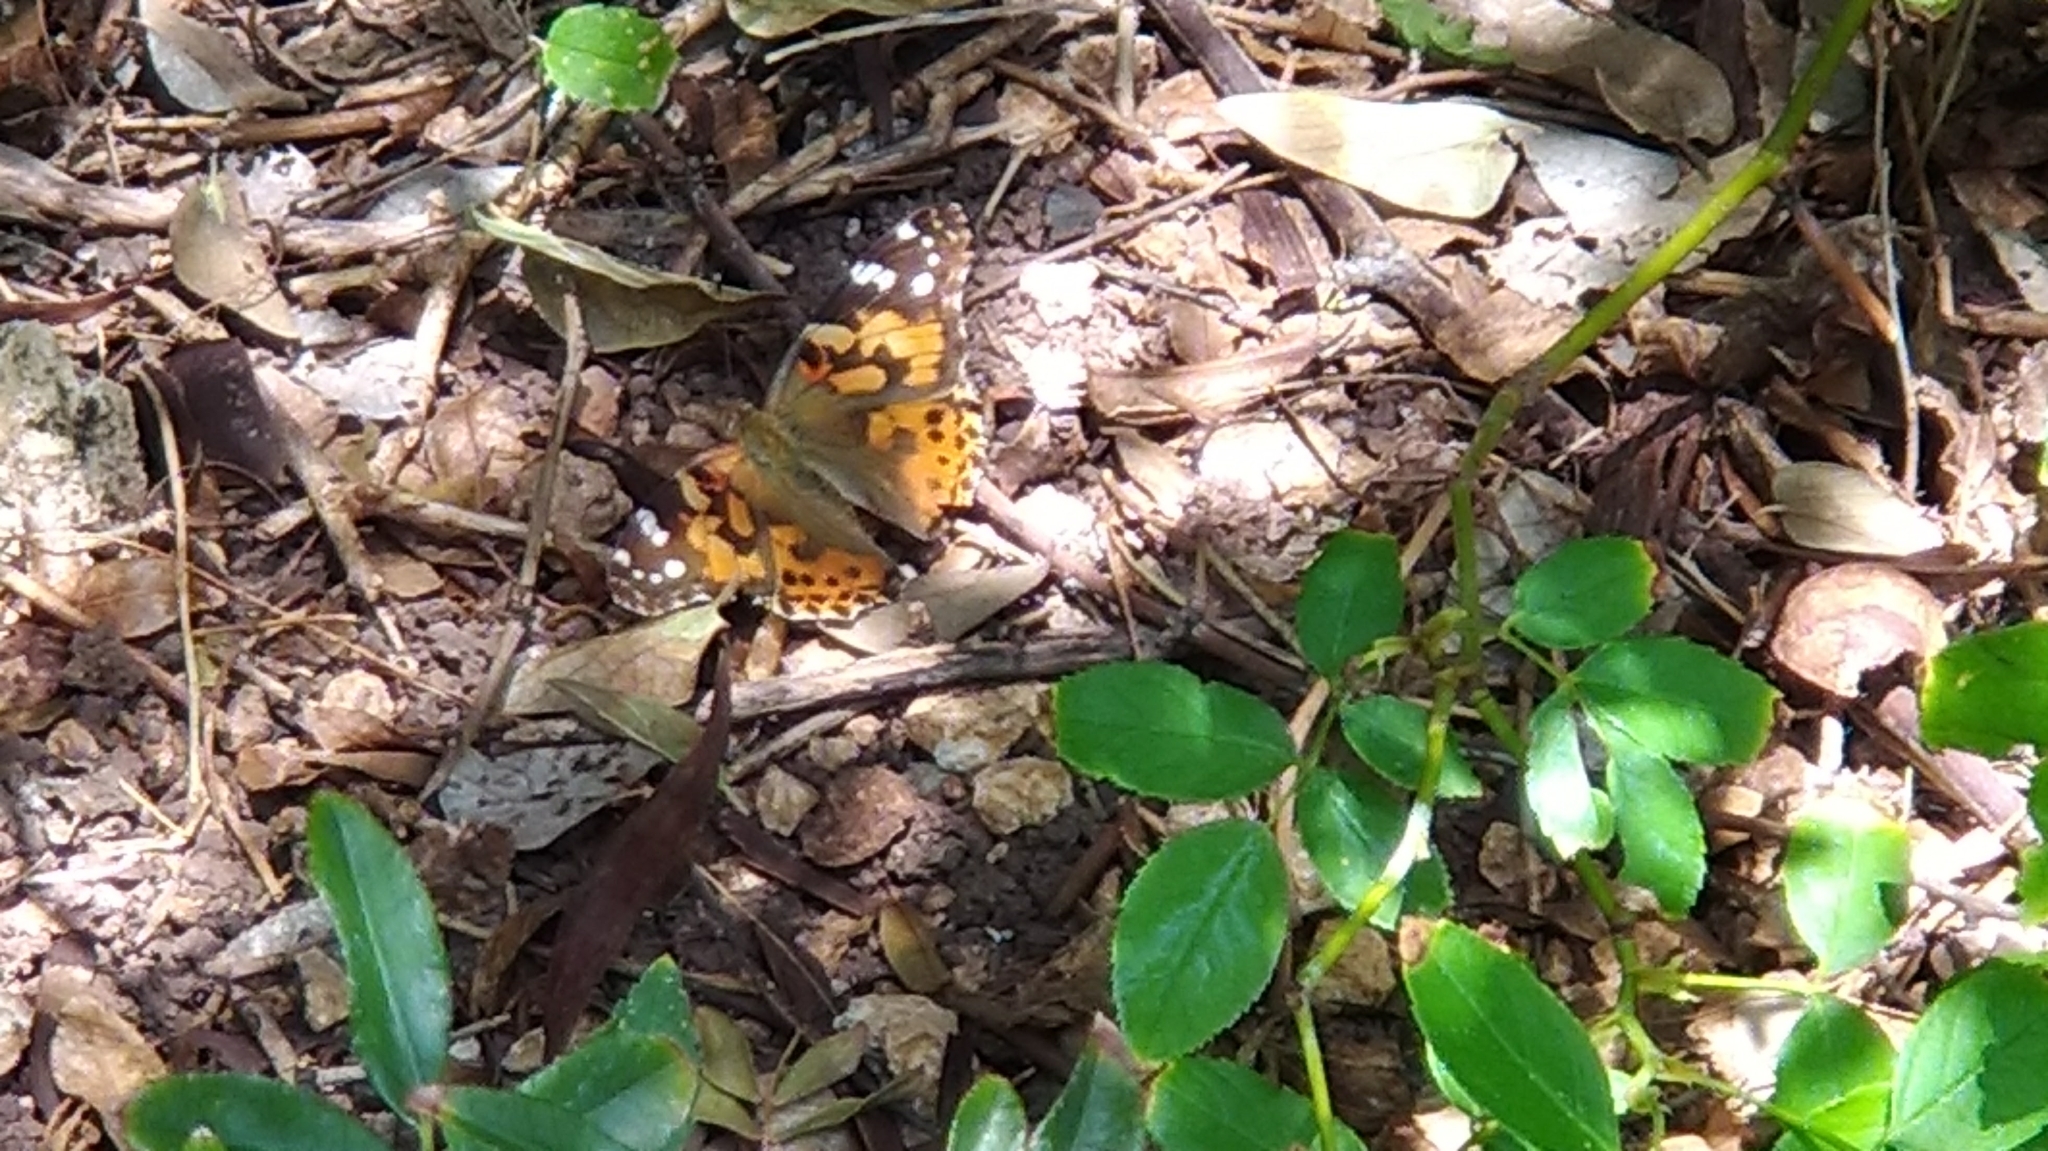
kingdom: Animalia
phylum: Arthropoda
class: Insecta
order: Lepidoptera
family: Nymphalidae
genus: Vanessa
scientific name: Vanessa cardui
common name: Painted lady
